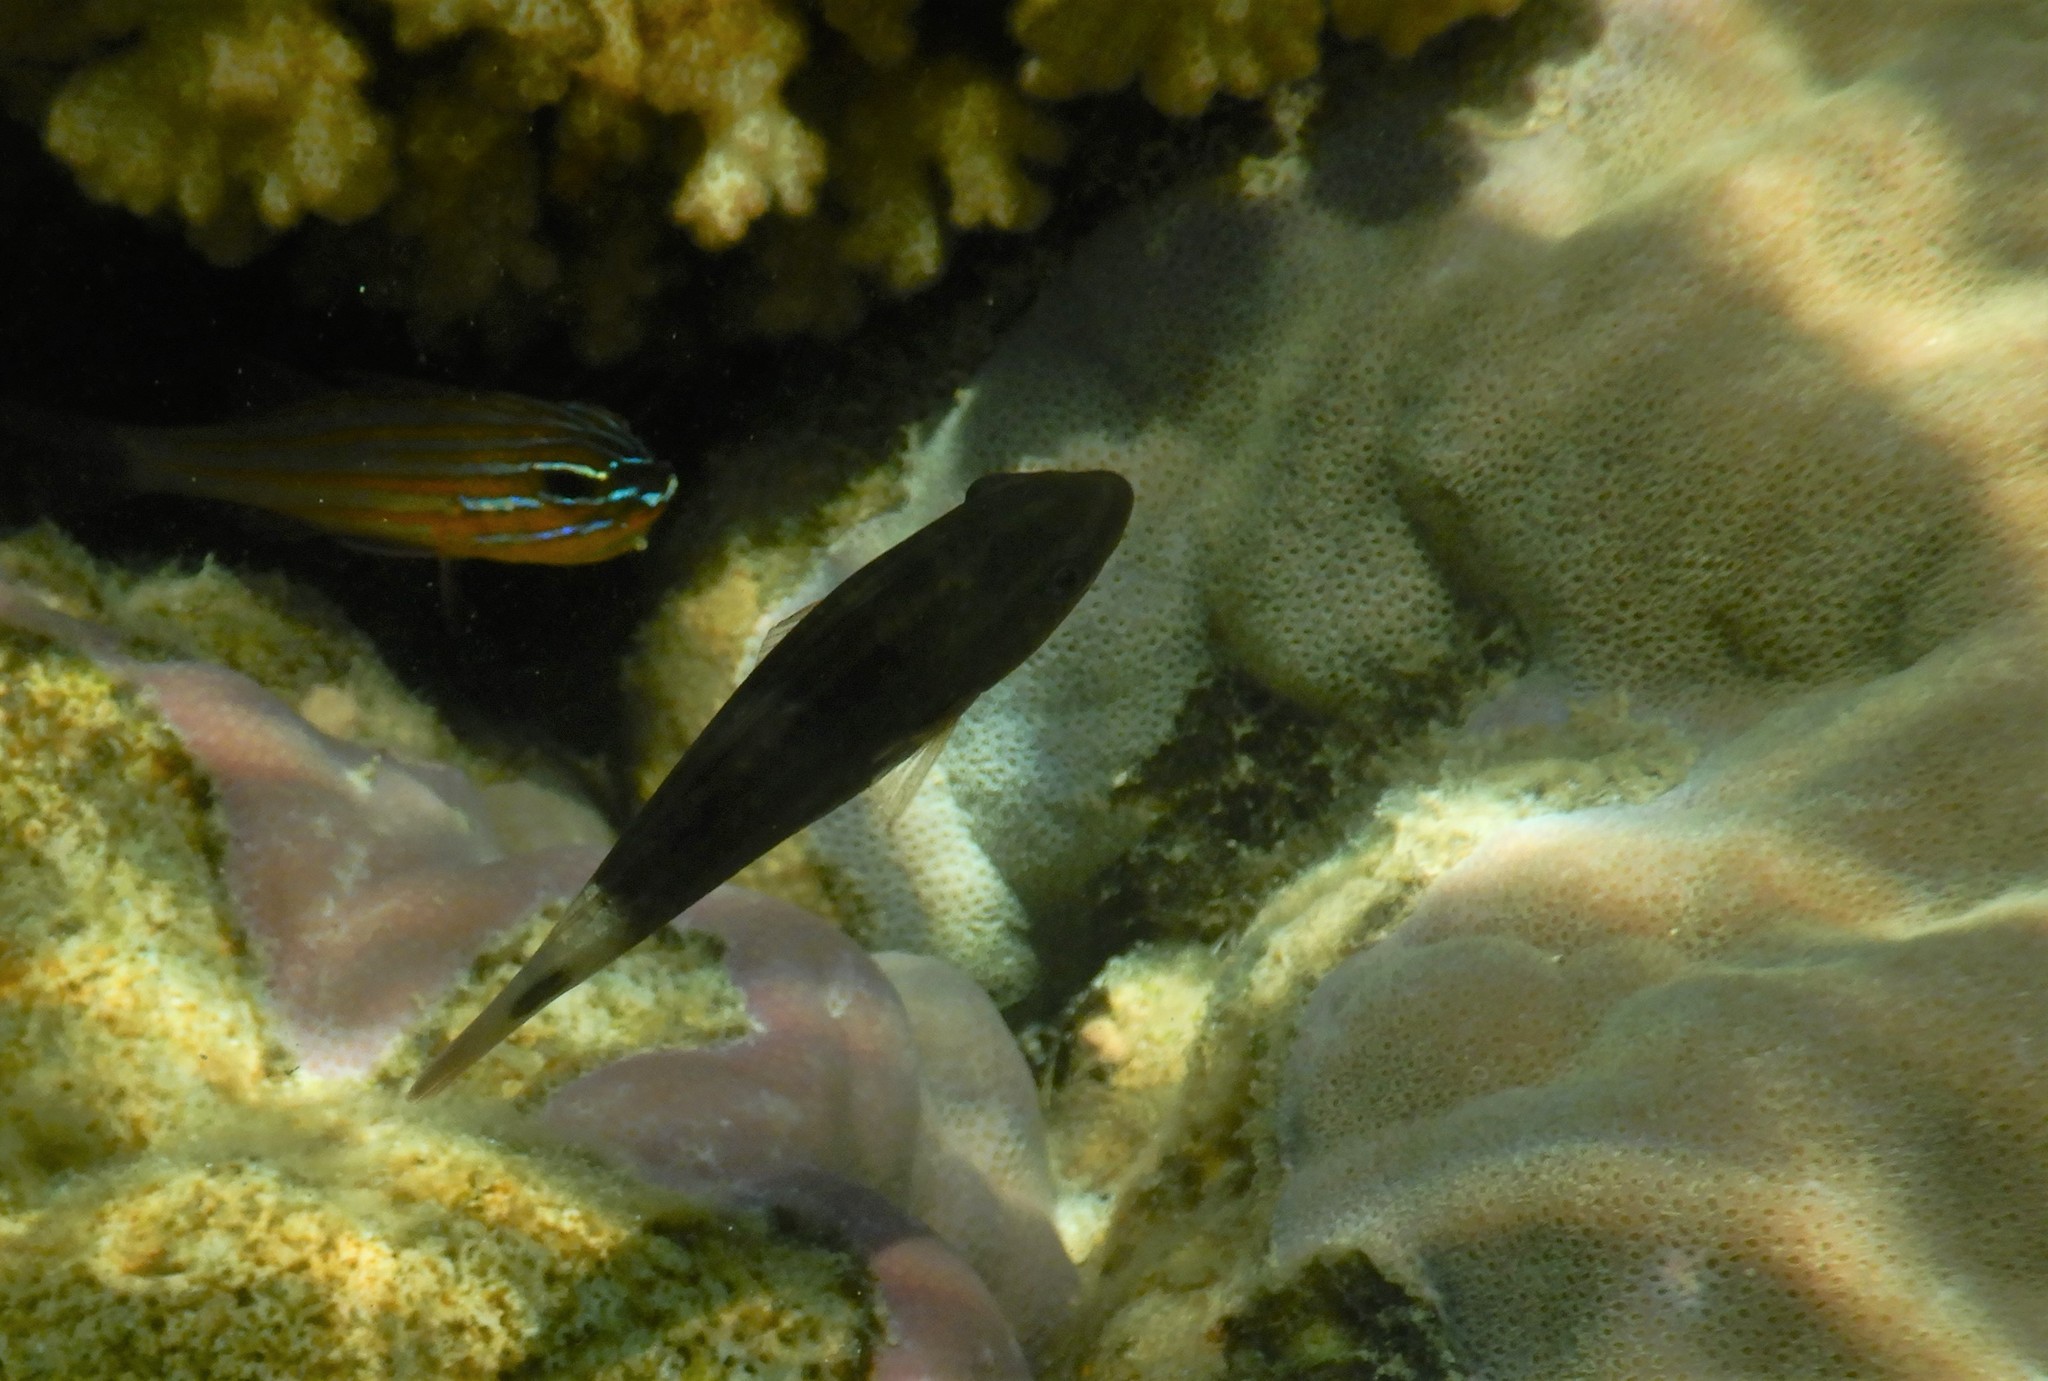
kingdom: Animalia
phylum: Chordata
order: Perciformes
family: Scaridae
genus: Chlorurus
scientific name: Chlorurus spilurus
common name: Bullethead parrotfish
